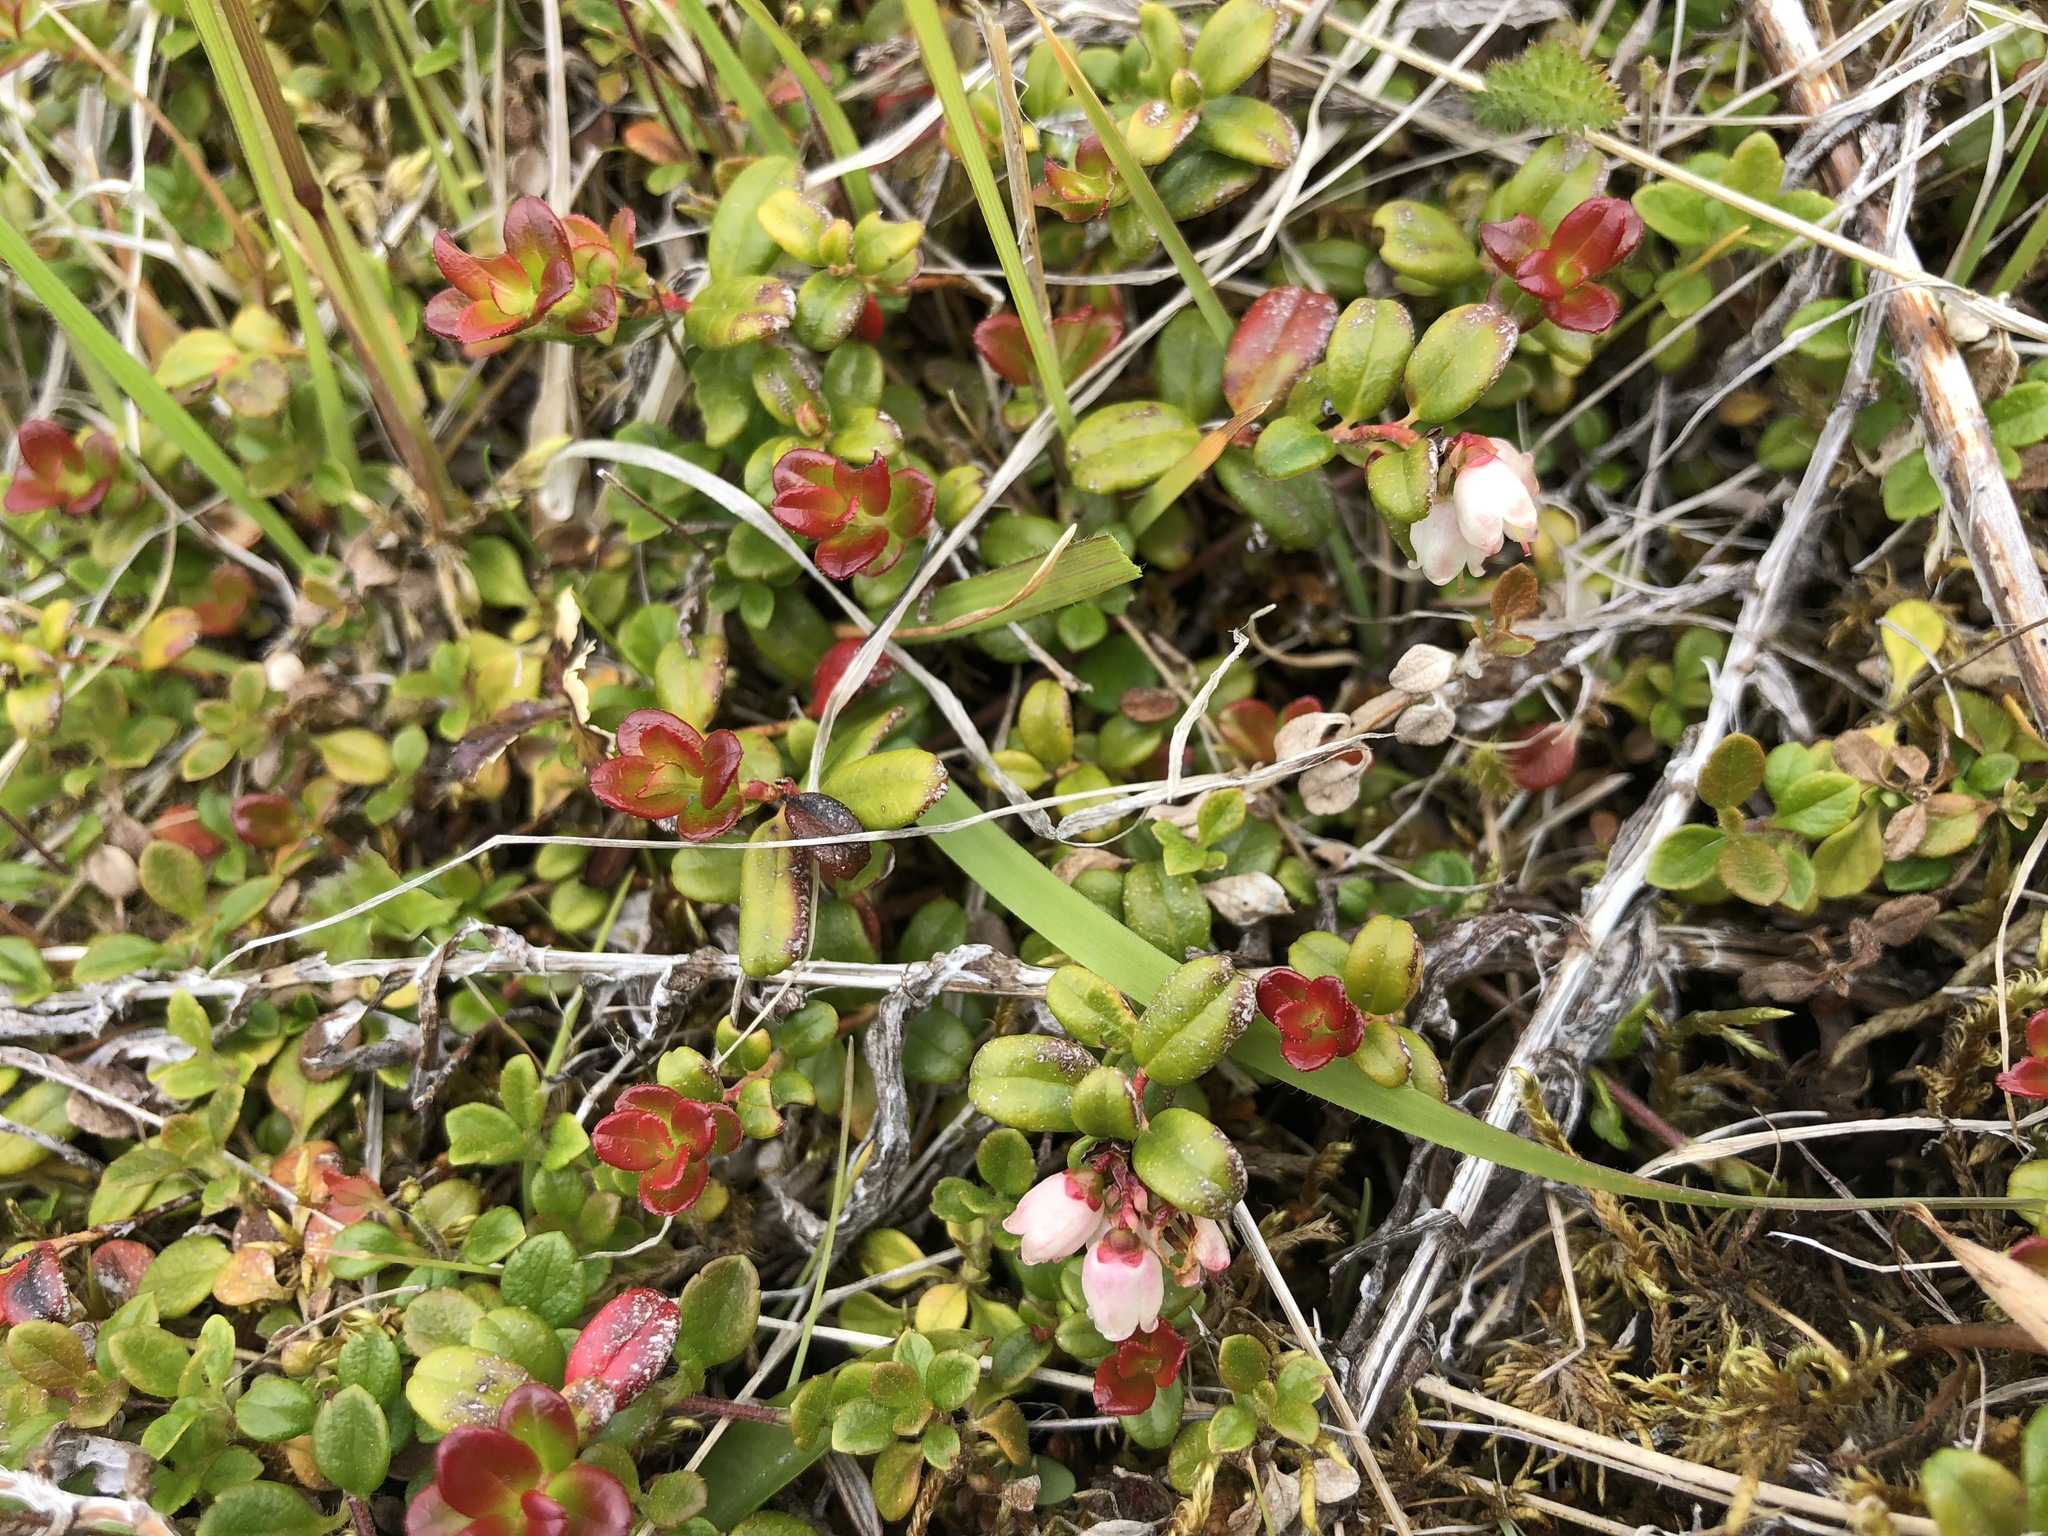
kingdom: Plantae
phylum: Tracheophyta
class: Magnoliopsida
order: Ericales
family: Ericaceae
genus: Vaccinium
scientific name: Vaccinium vitis-idaea
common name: Cowberry
